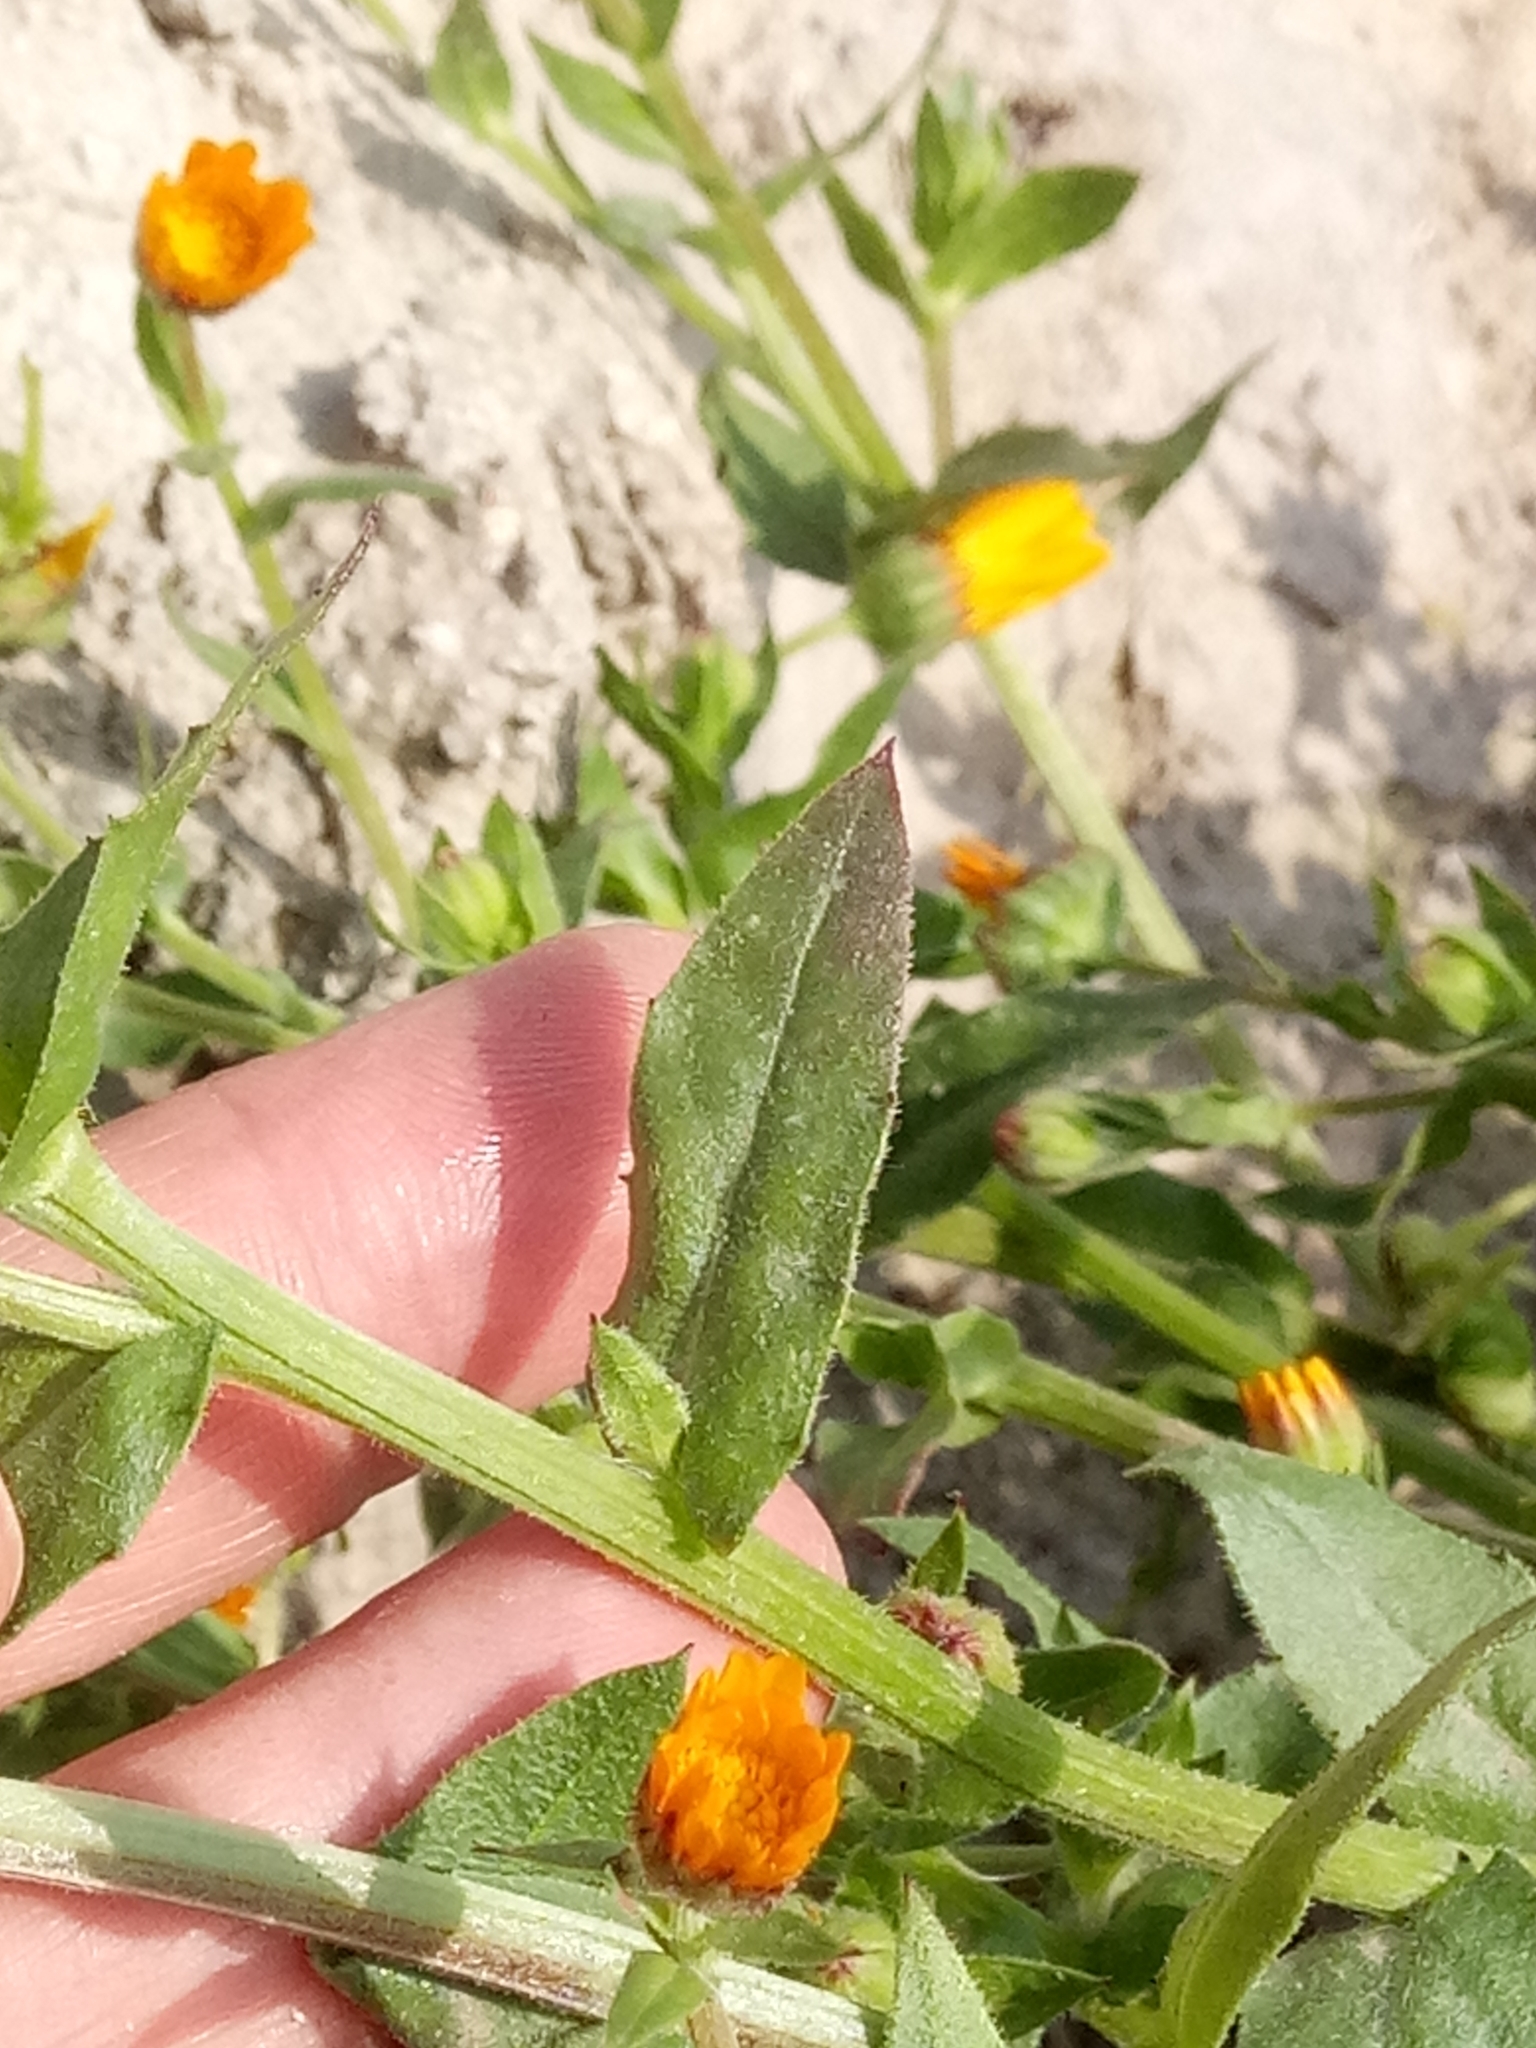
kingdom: Plantae
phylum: Tracheophyta
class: Magnoliopsida
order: Asterales
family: Asteraceae
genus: Calendula
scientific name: Calendula arvensis
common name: Field marigold
